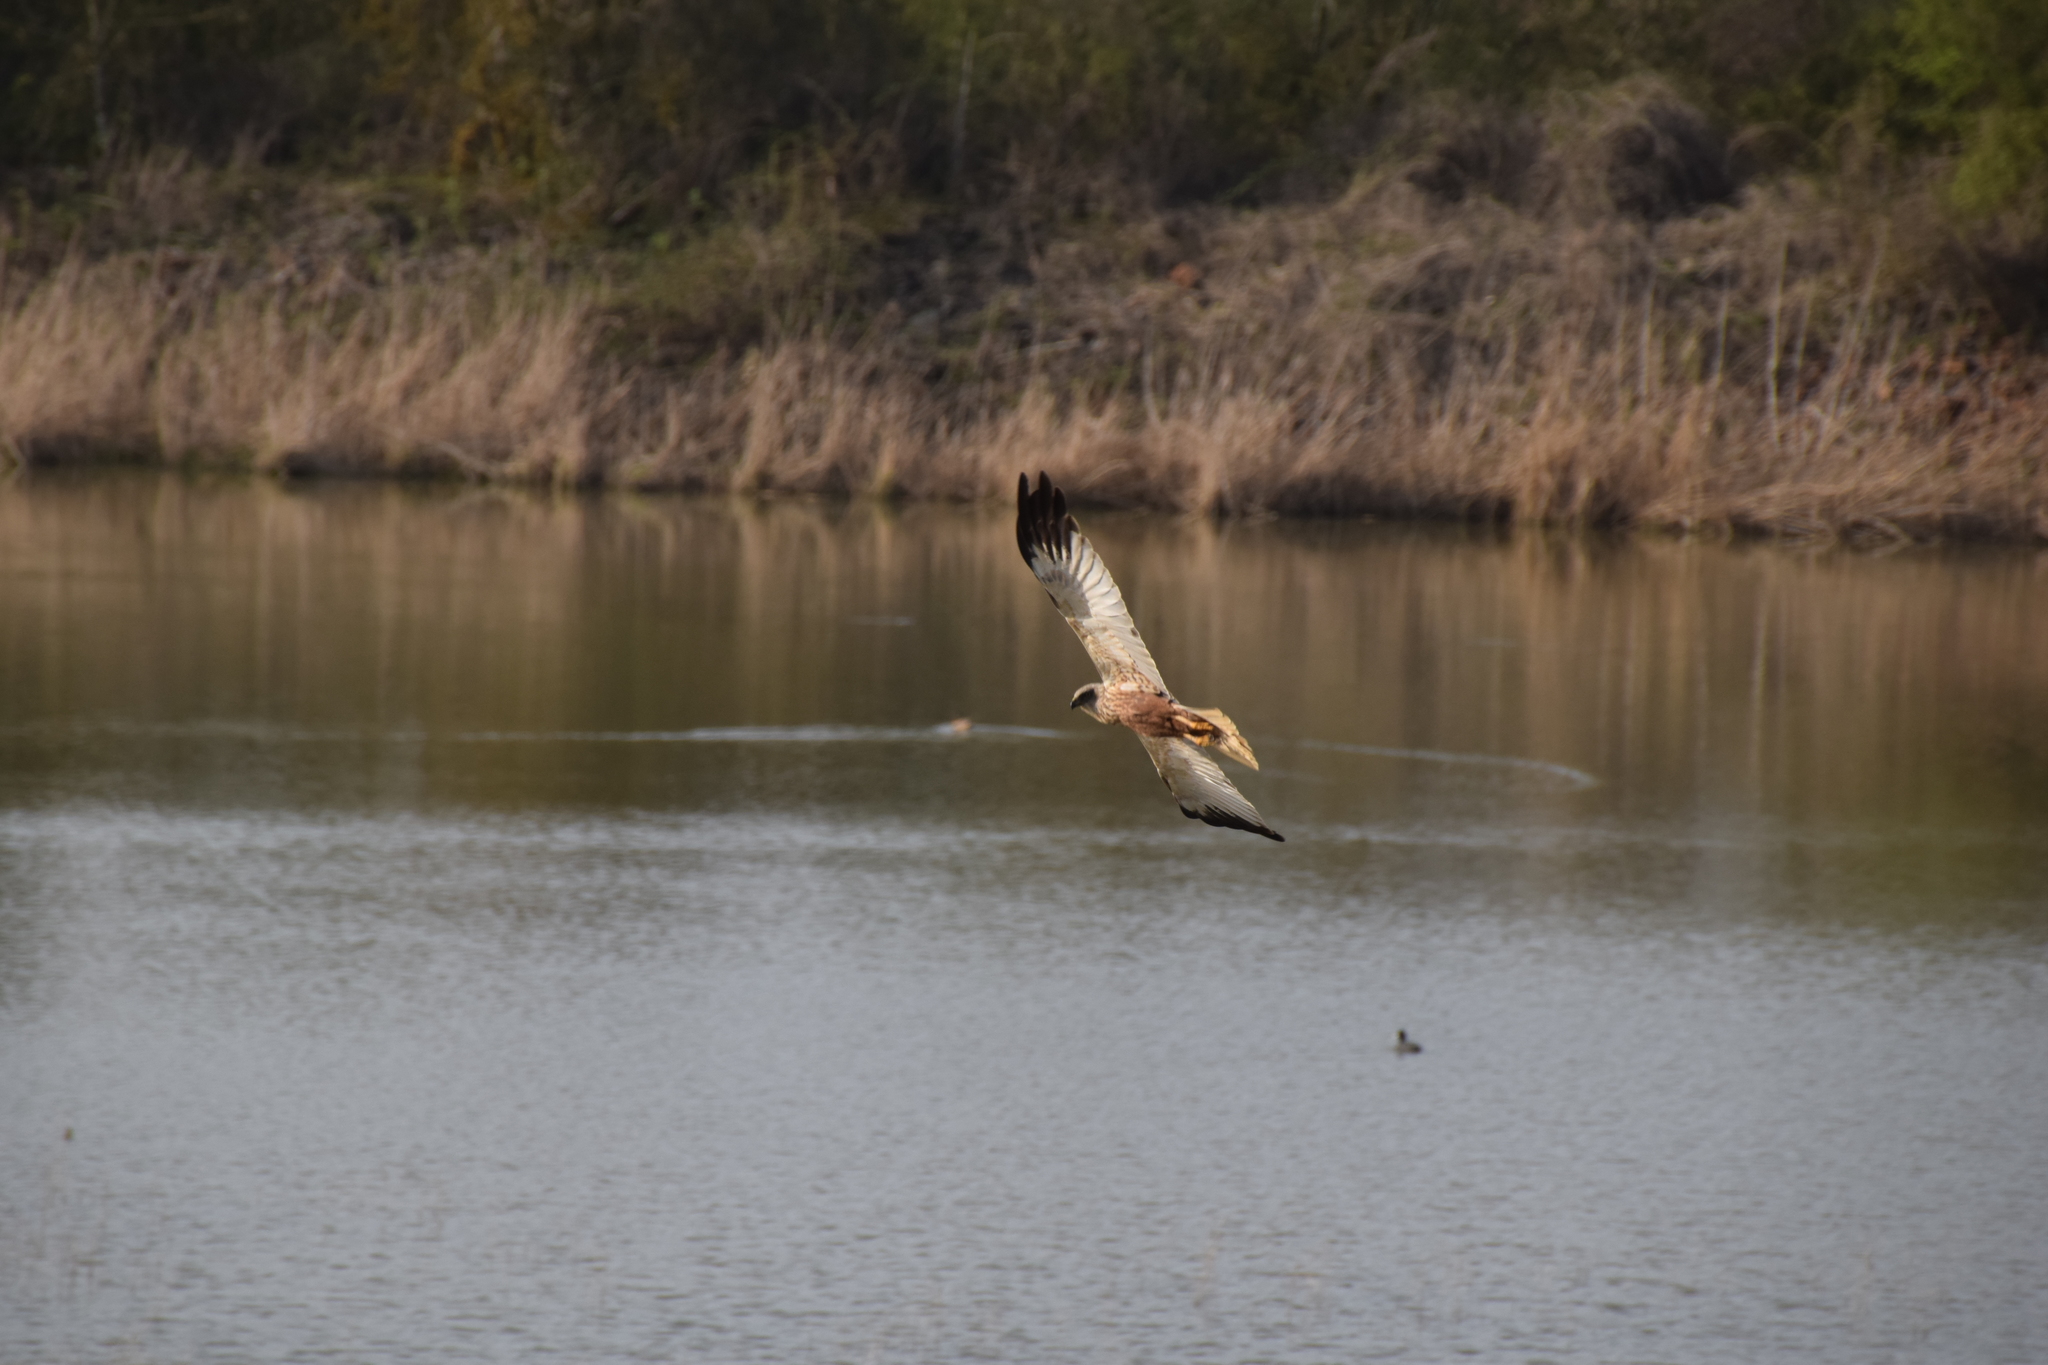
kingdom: Animalia
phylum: Chordata
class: Aves
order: Accipitriformes
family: Accipitridae
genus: Circus
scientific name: Circus aeruginosus
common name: Western marsh harrier
